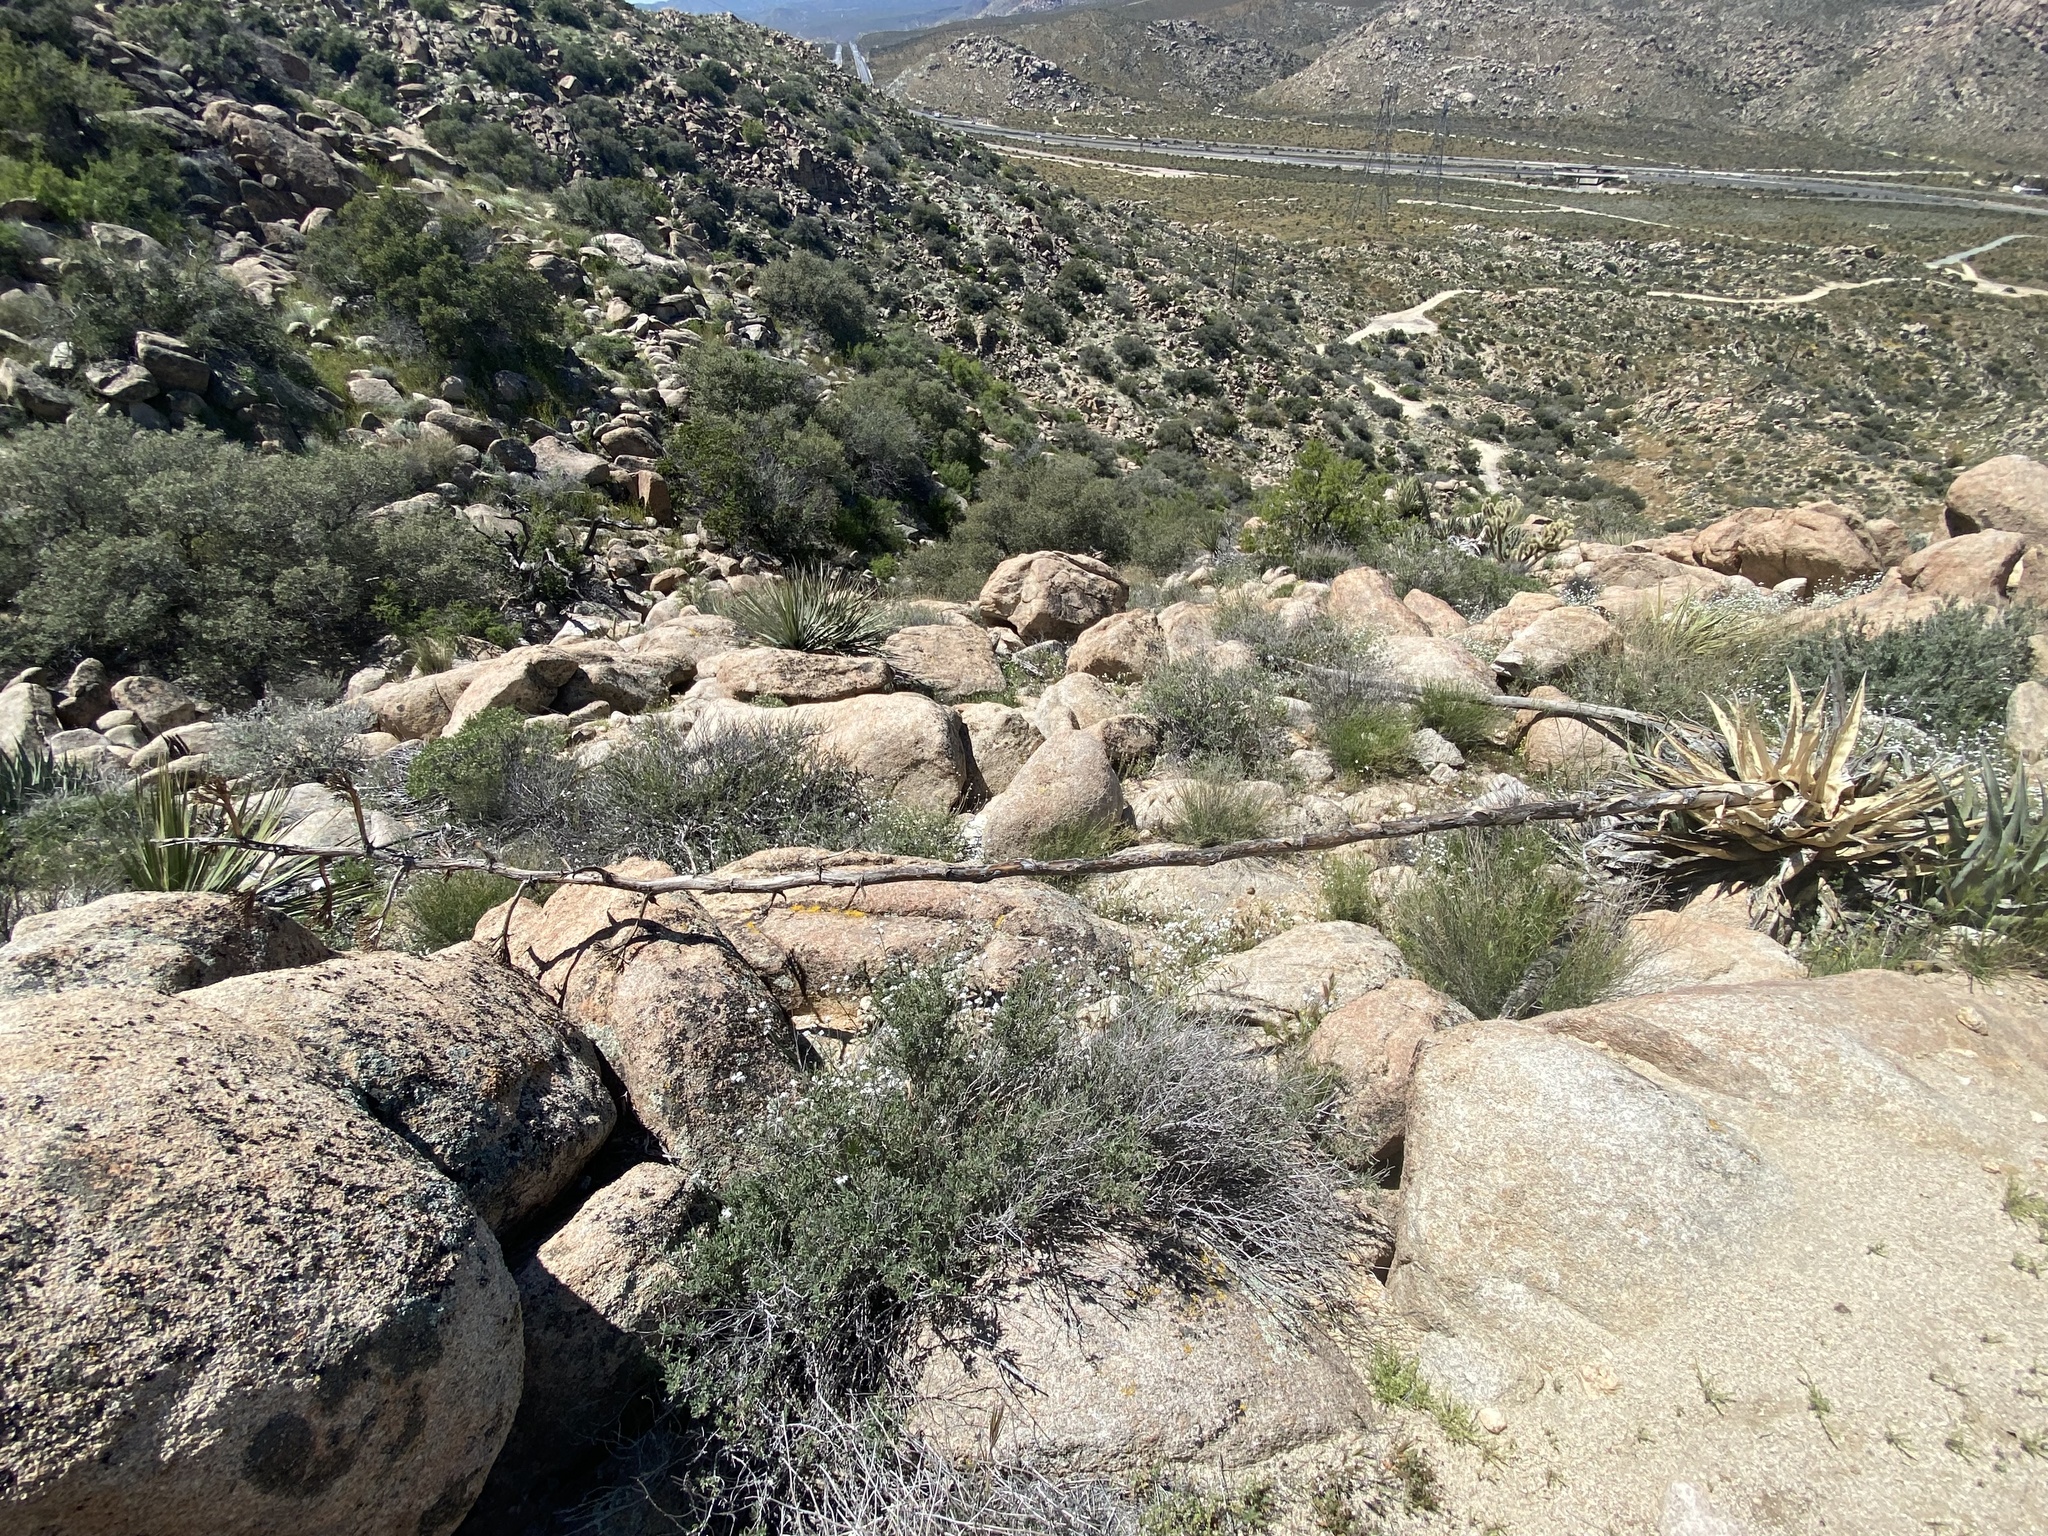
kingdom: Plantae
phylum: Tracheophyta
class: Liliopsida
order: Asparagales
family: Asparagaceae
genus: Agave
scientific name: Agave deserti
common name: Desert agave
